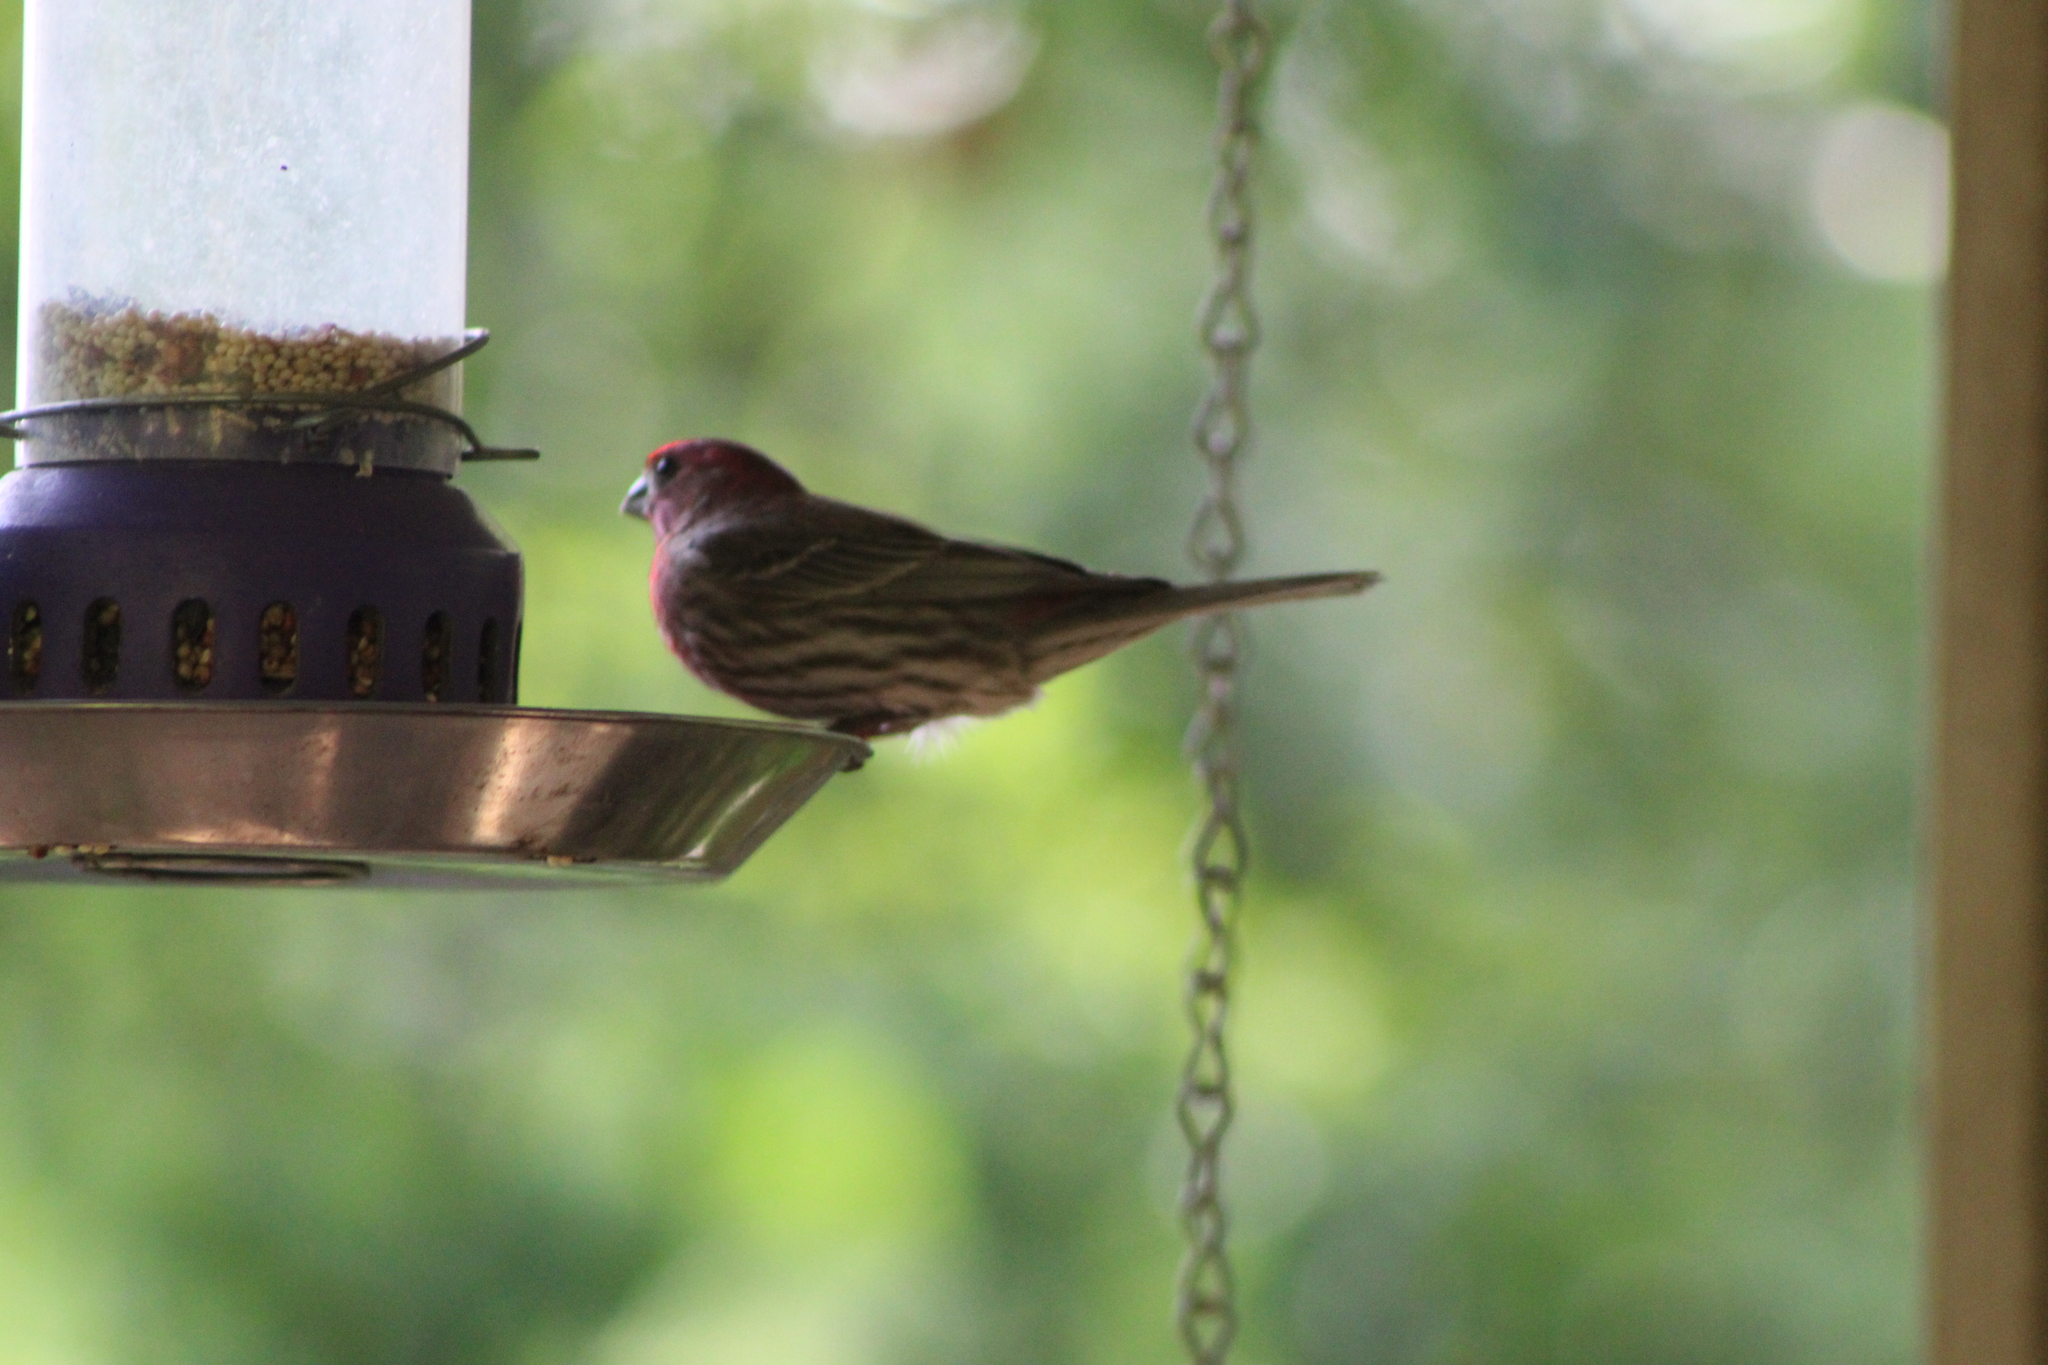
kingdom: Animalia
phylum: Chordata
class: Aves
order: Passeriformes
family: Fringillidae
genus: Haemorhous
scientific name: Haemorhous mexicanus
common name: House finch
